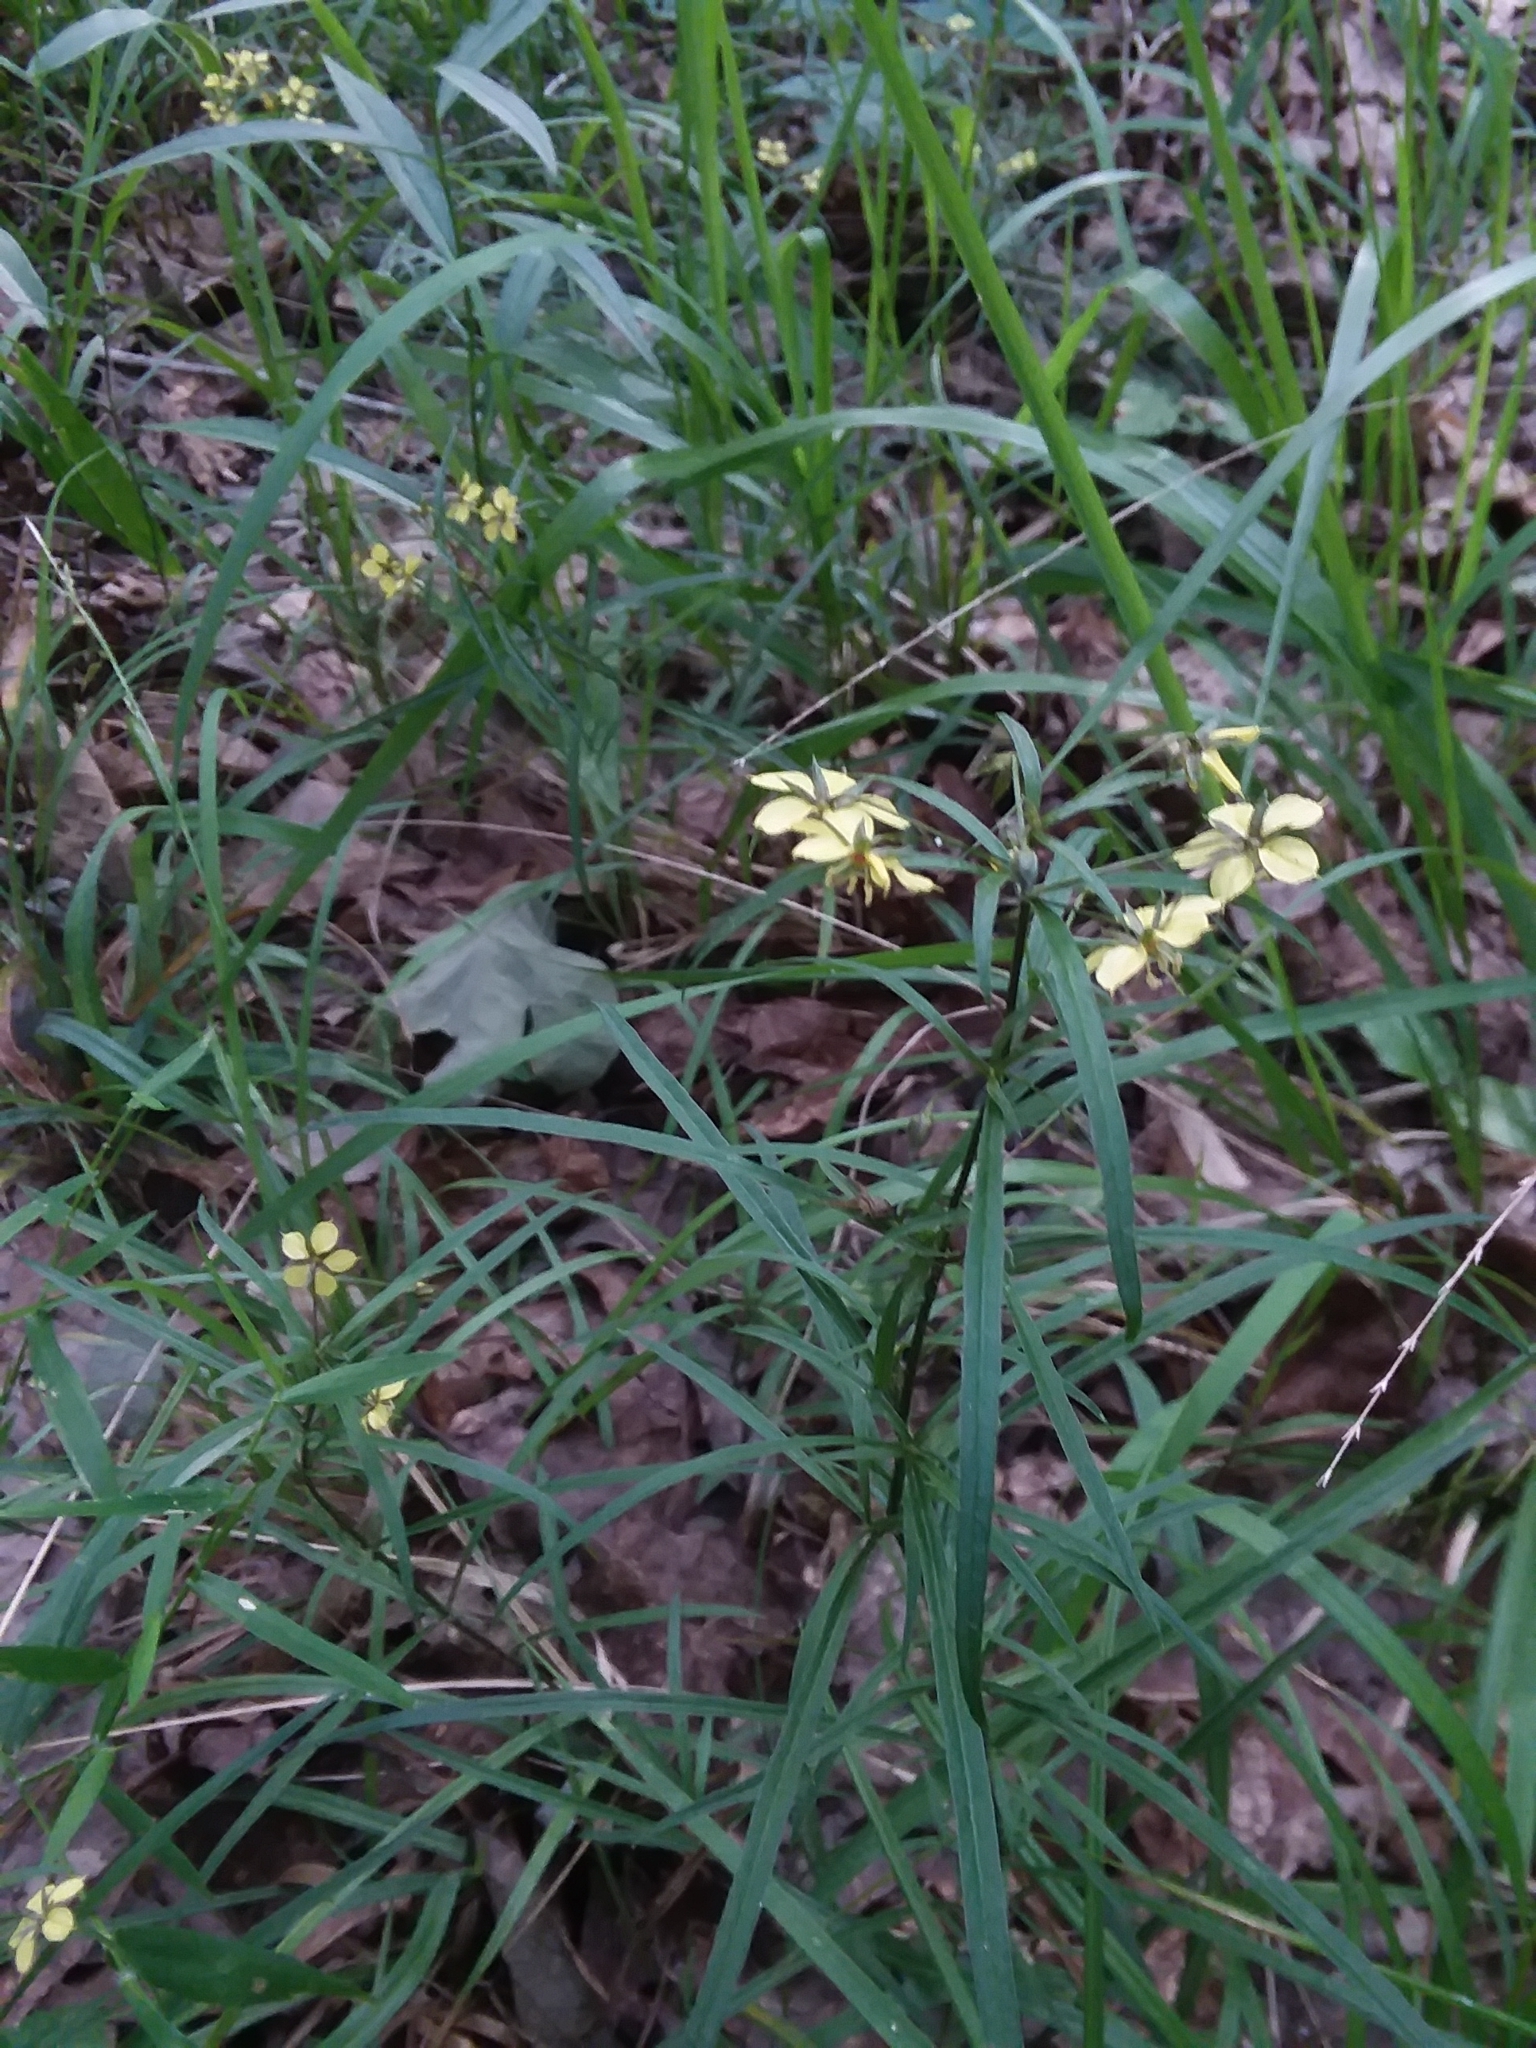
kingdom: Plantae
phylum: Tracheophyta
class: Magnoliopsida
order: Ericales
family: Primulaceae
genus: Lysimachia
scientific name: Lysimachia lanceolata
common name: Lance-leaved loosestrife
